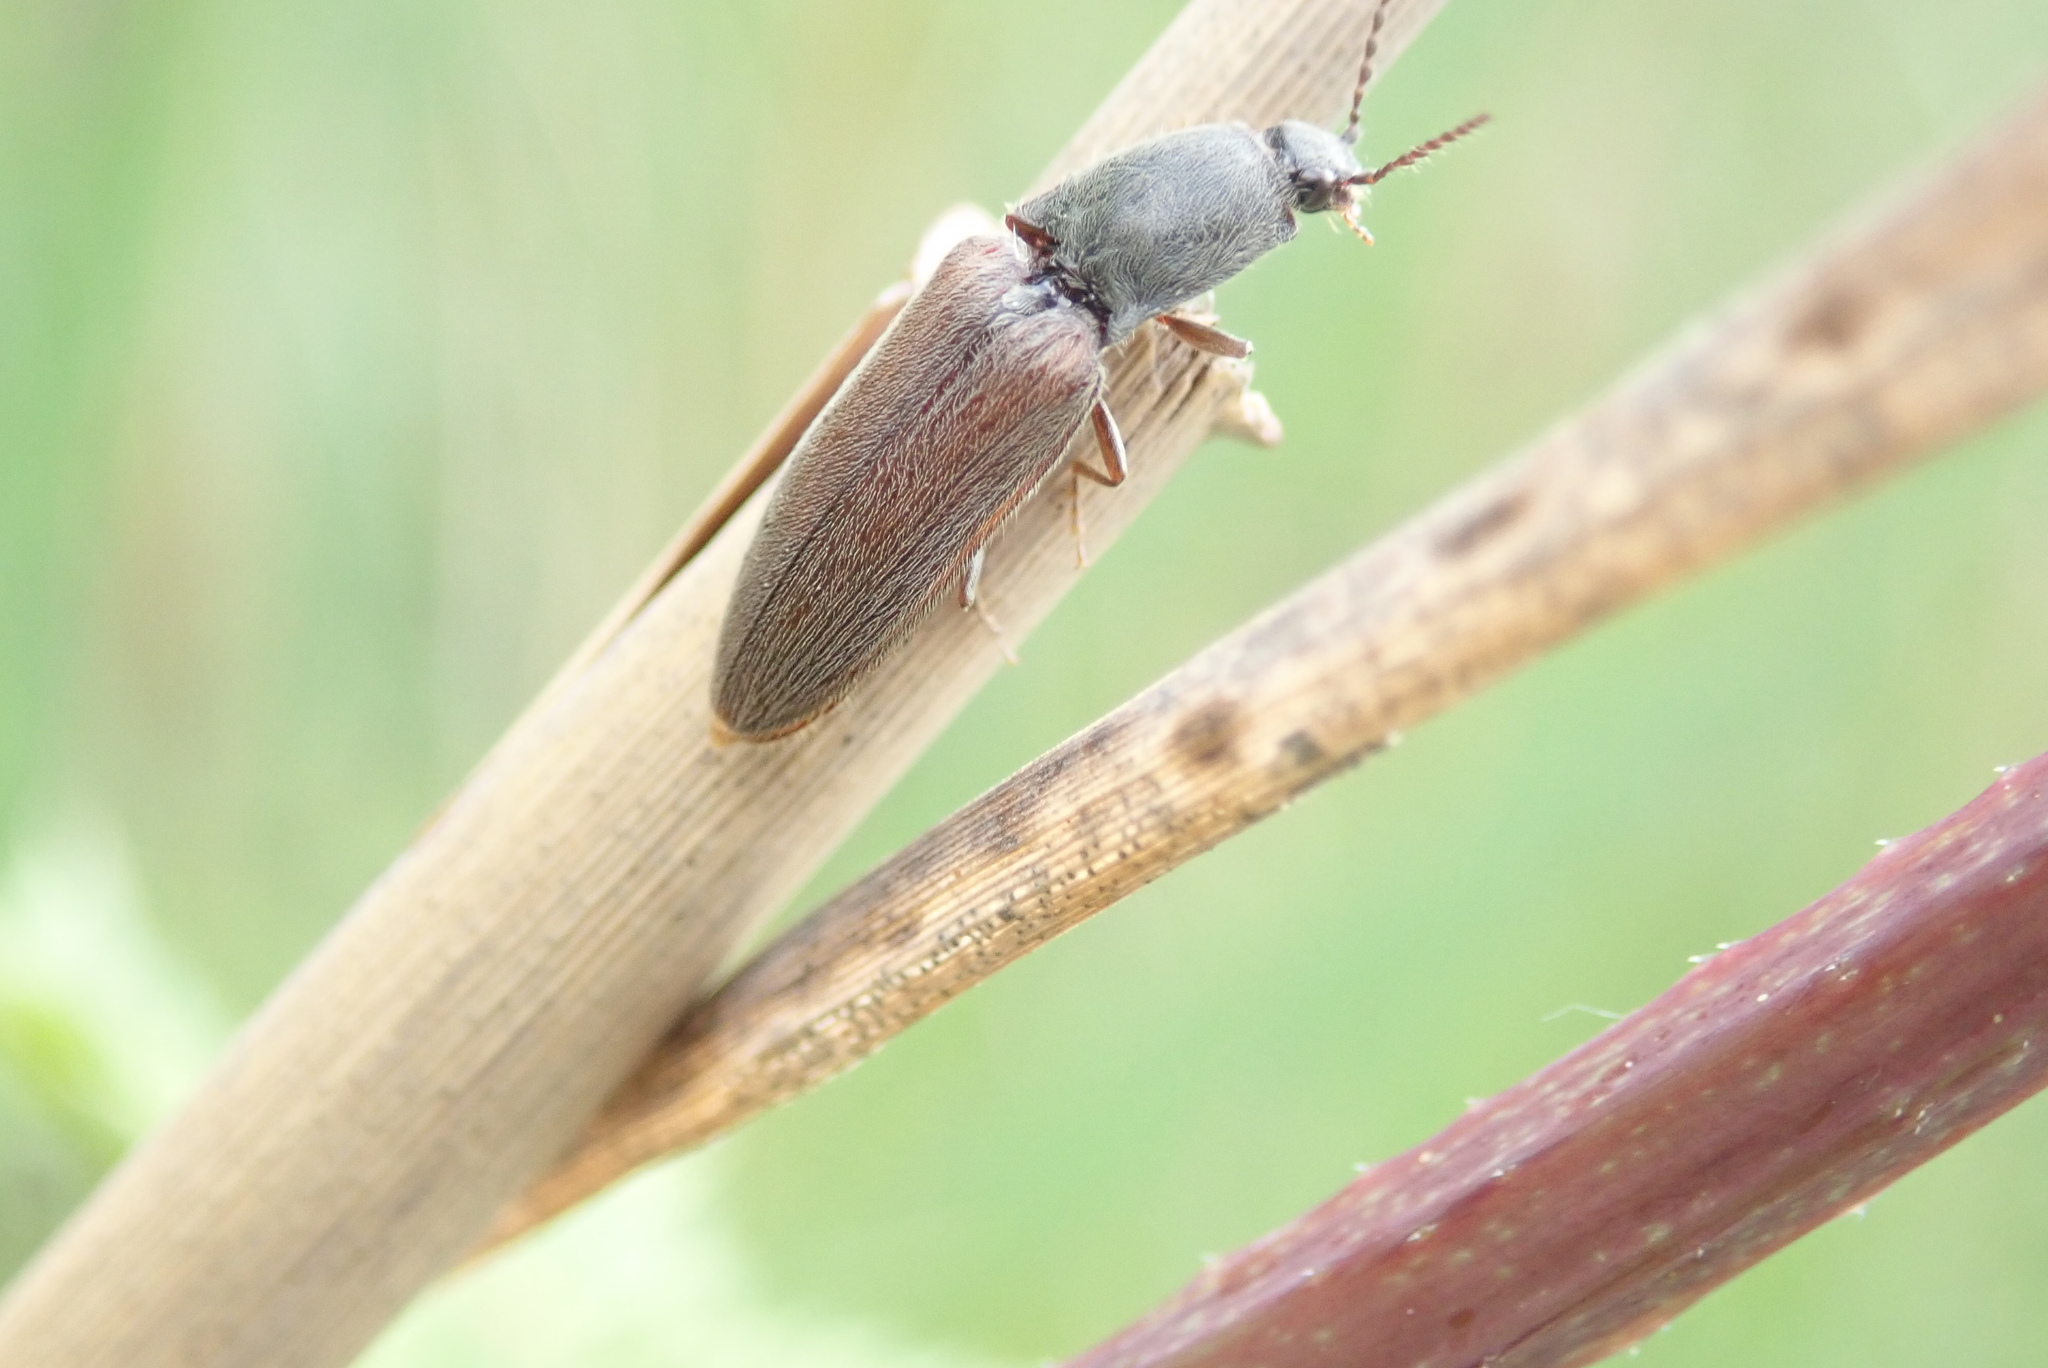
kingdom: Animalia
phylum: Arthropoda
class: Insecta
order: Coleoptera
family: Elateridae
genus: Athous
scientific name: Athous haemorrhoidalis
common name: Red-brown click beetle
